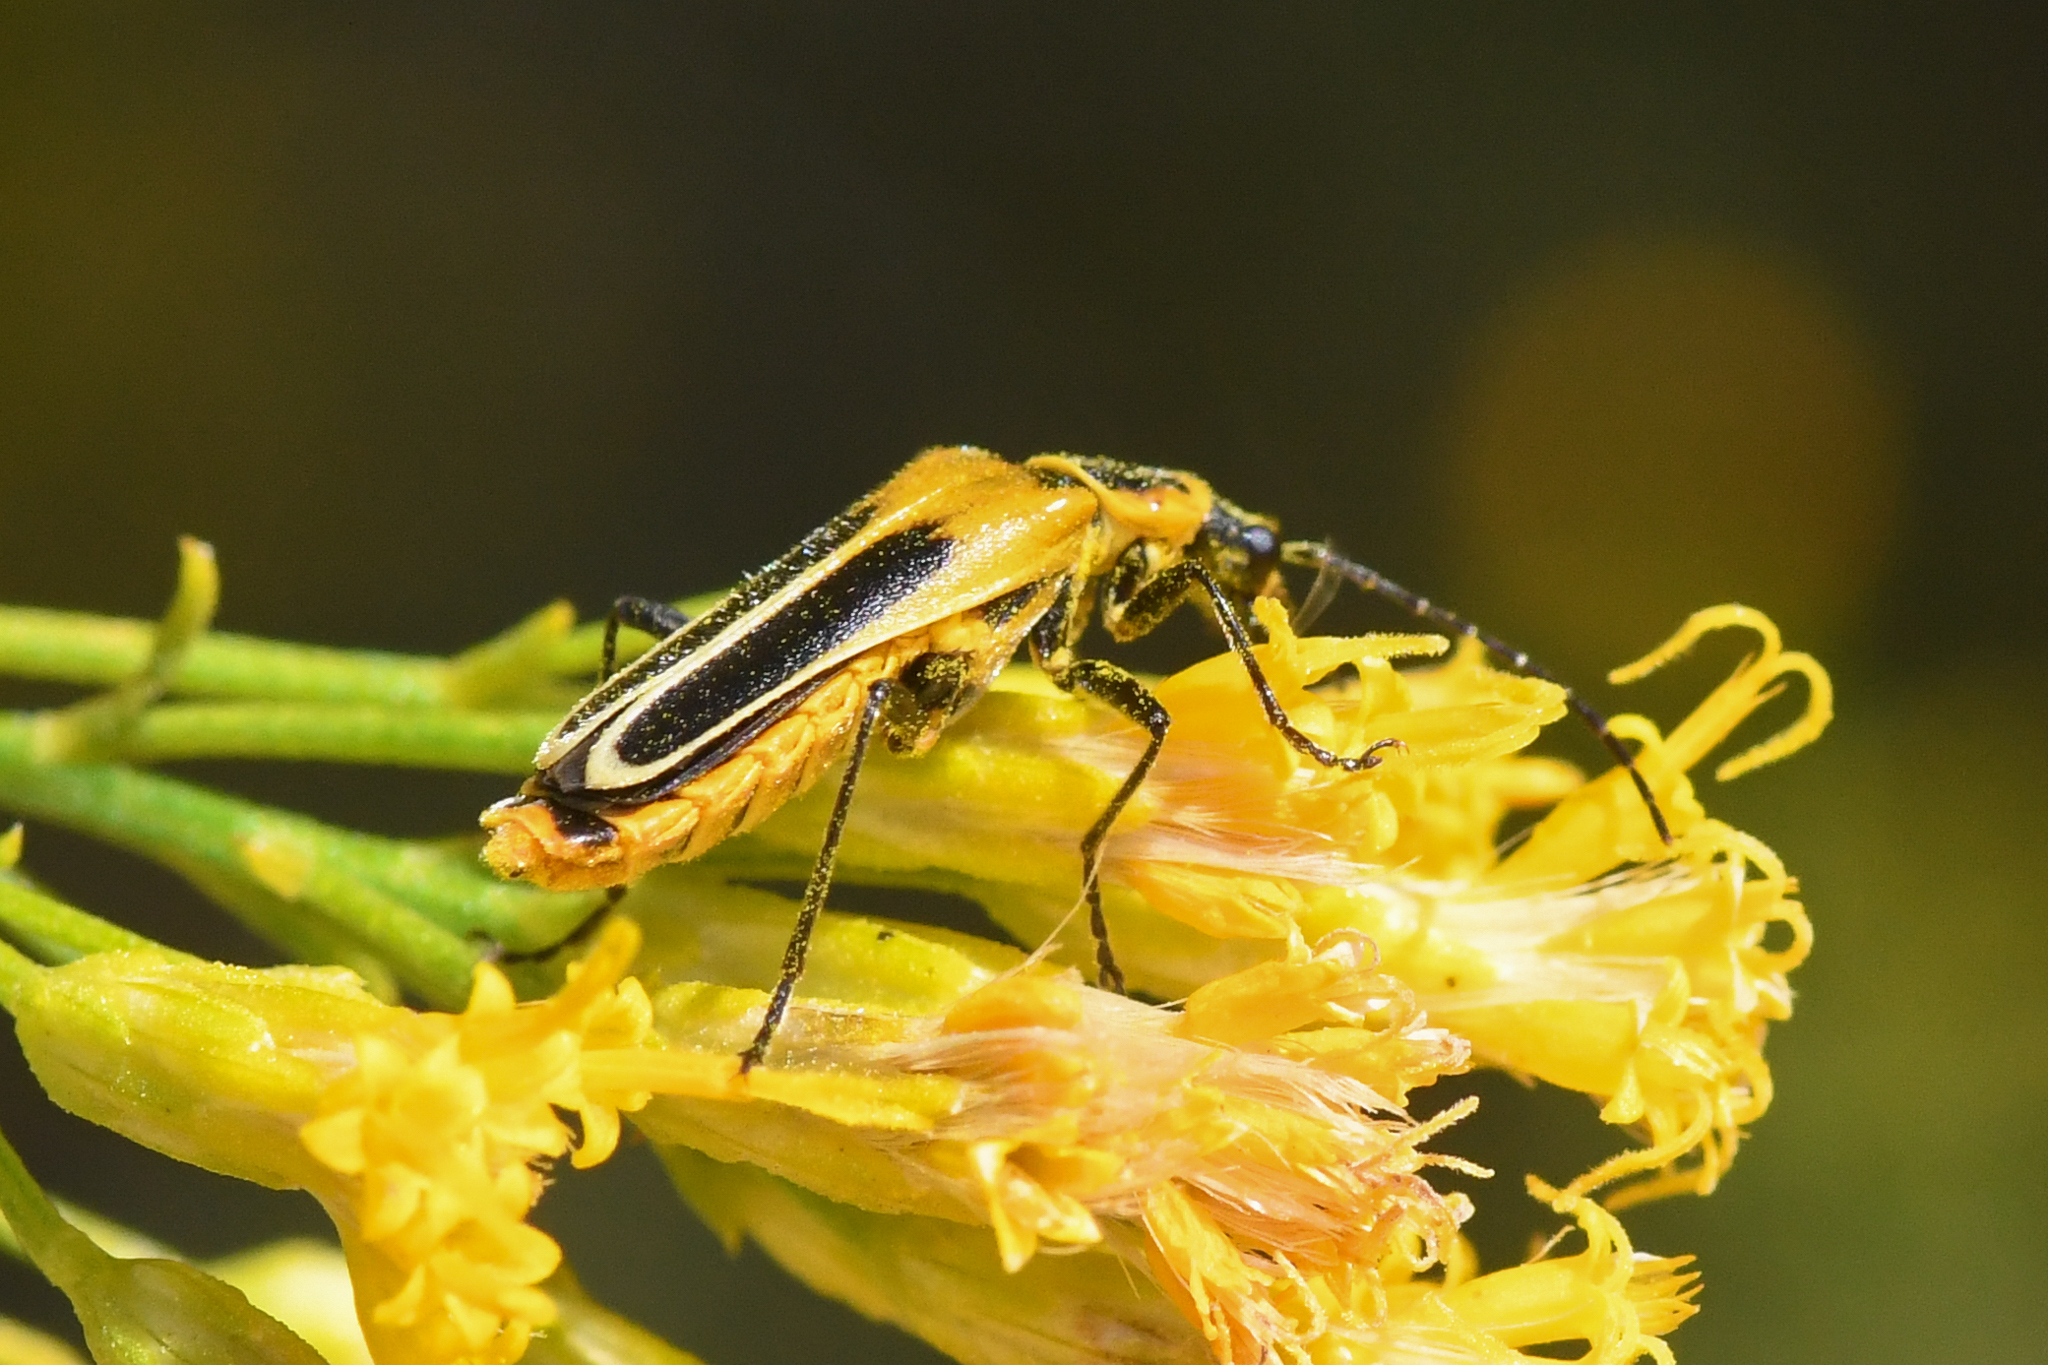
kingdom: Animalia
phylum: Arthropoda
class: Insecta
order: Coleoptera
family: Cantharidae
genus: Chauliognathus
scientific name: Chauliognathus lewisi
